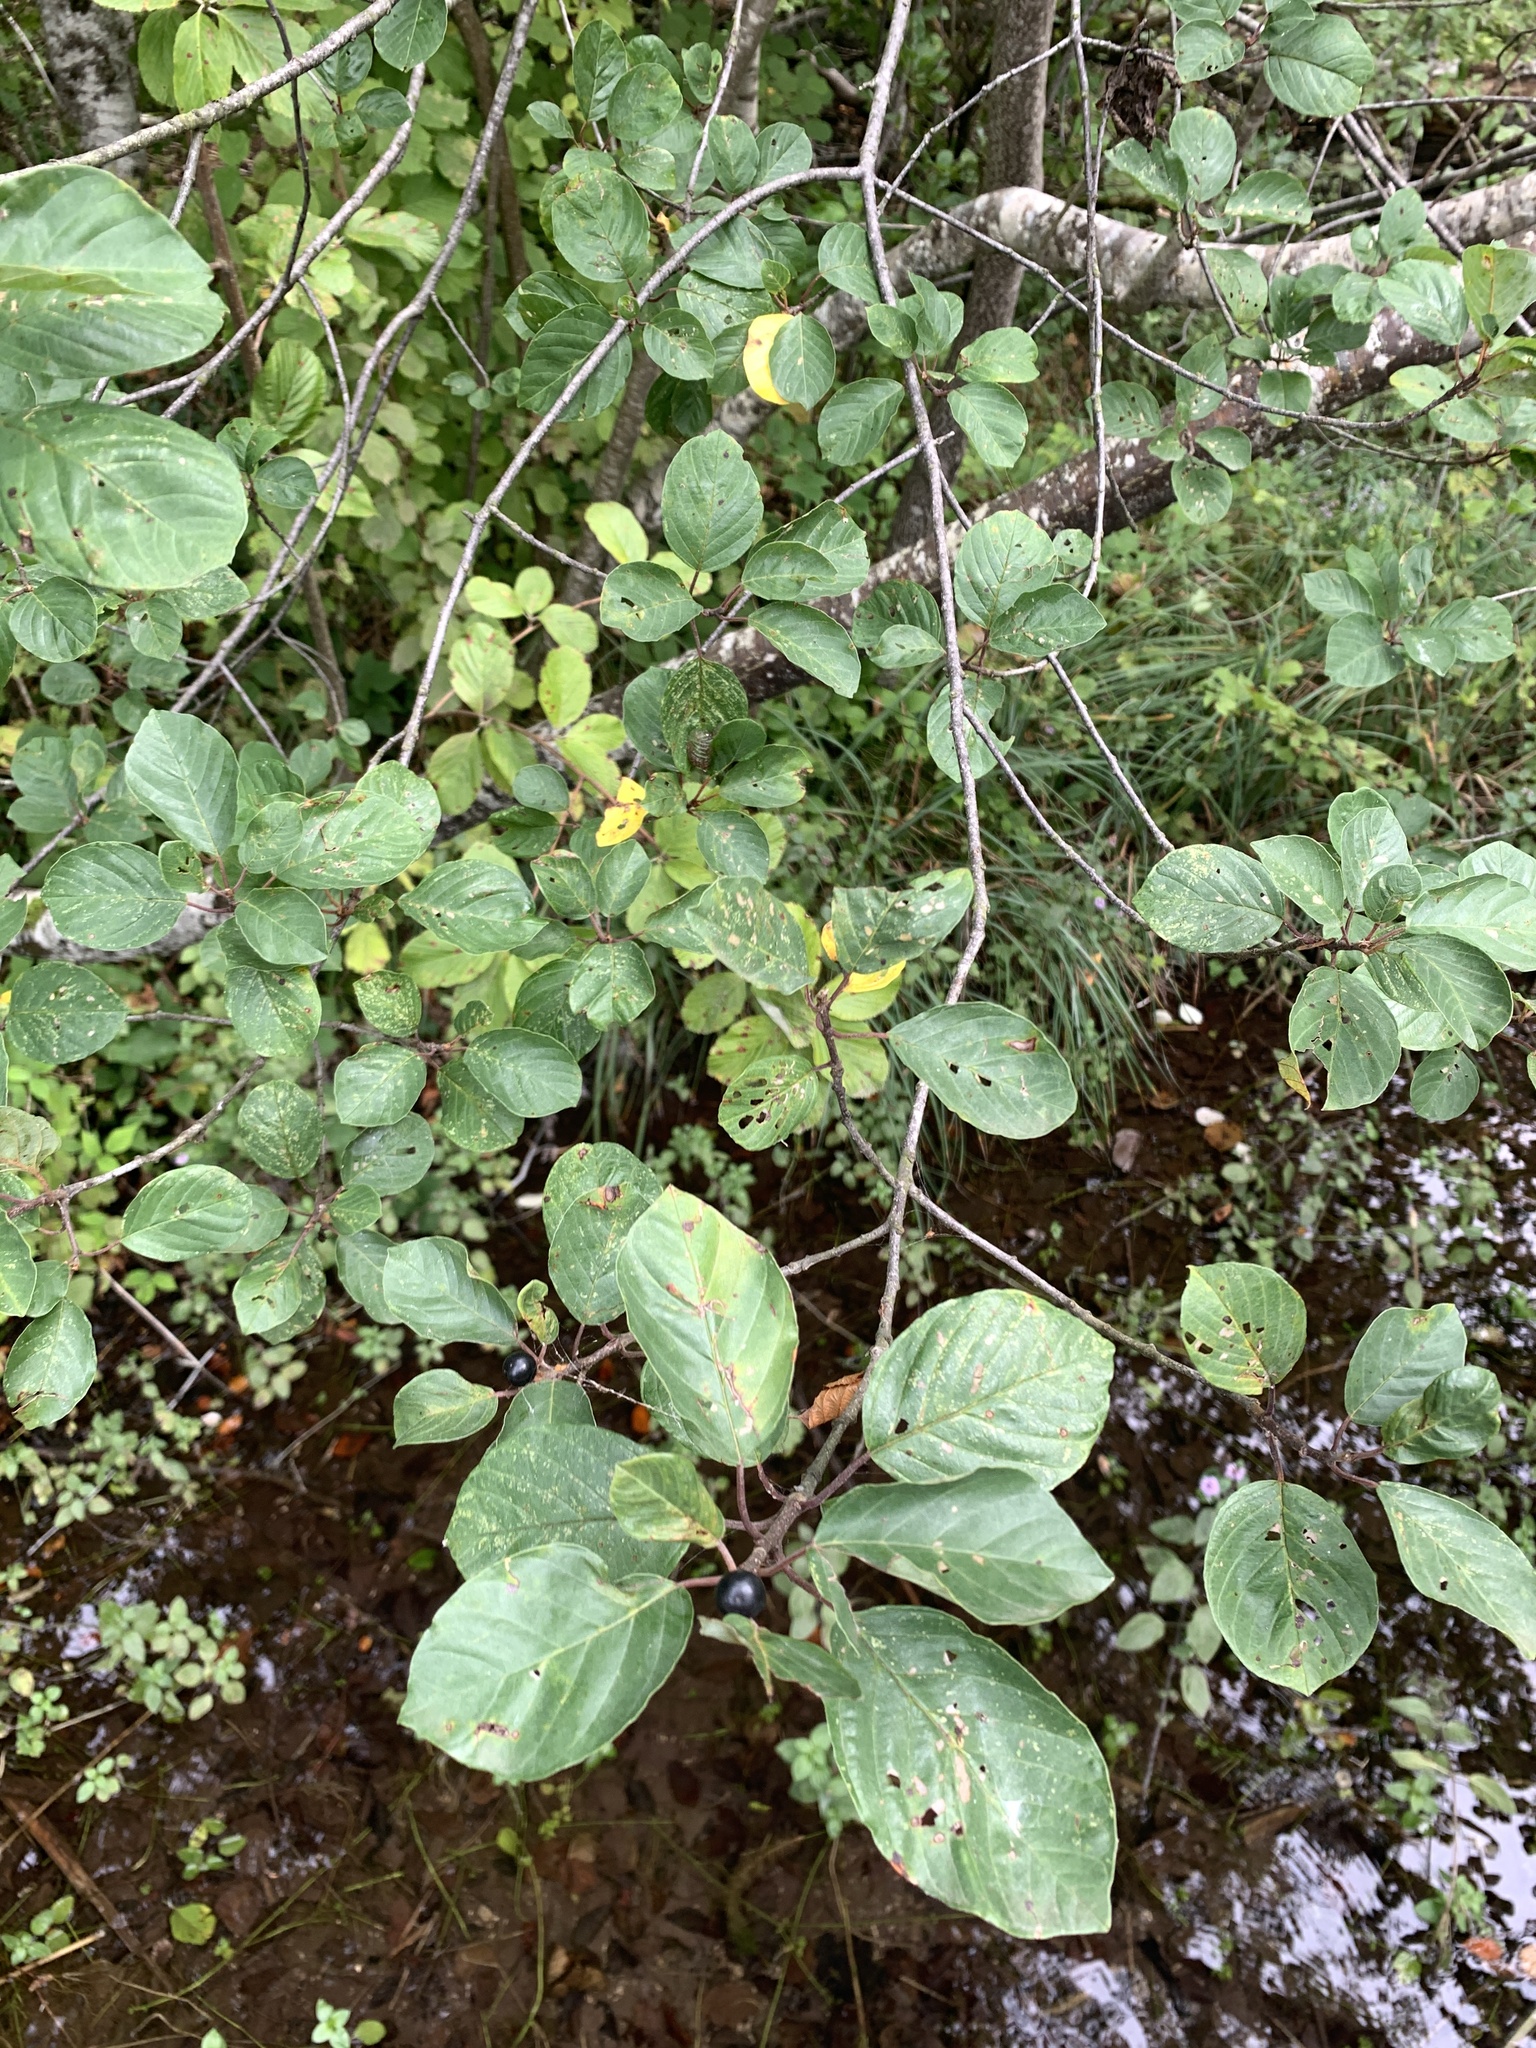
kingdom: Plantae
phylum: Tracheophyta
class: Magnoliopsida
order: Rosales
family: Rhamnaceae
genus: Frangula
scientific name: Frangula alnus
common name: Alder buckthorn
